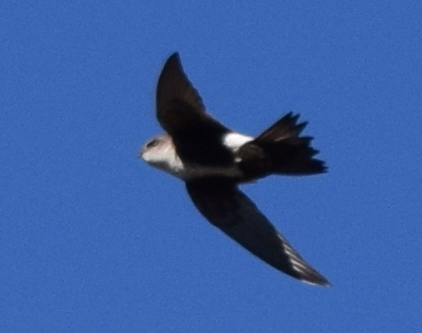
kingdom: Animalia
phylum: Chordata
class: Aves
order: Apodiformes
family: Apodidae
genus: Aeronautes
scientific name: Aeronautes saxatalis
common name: White-throated swift
